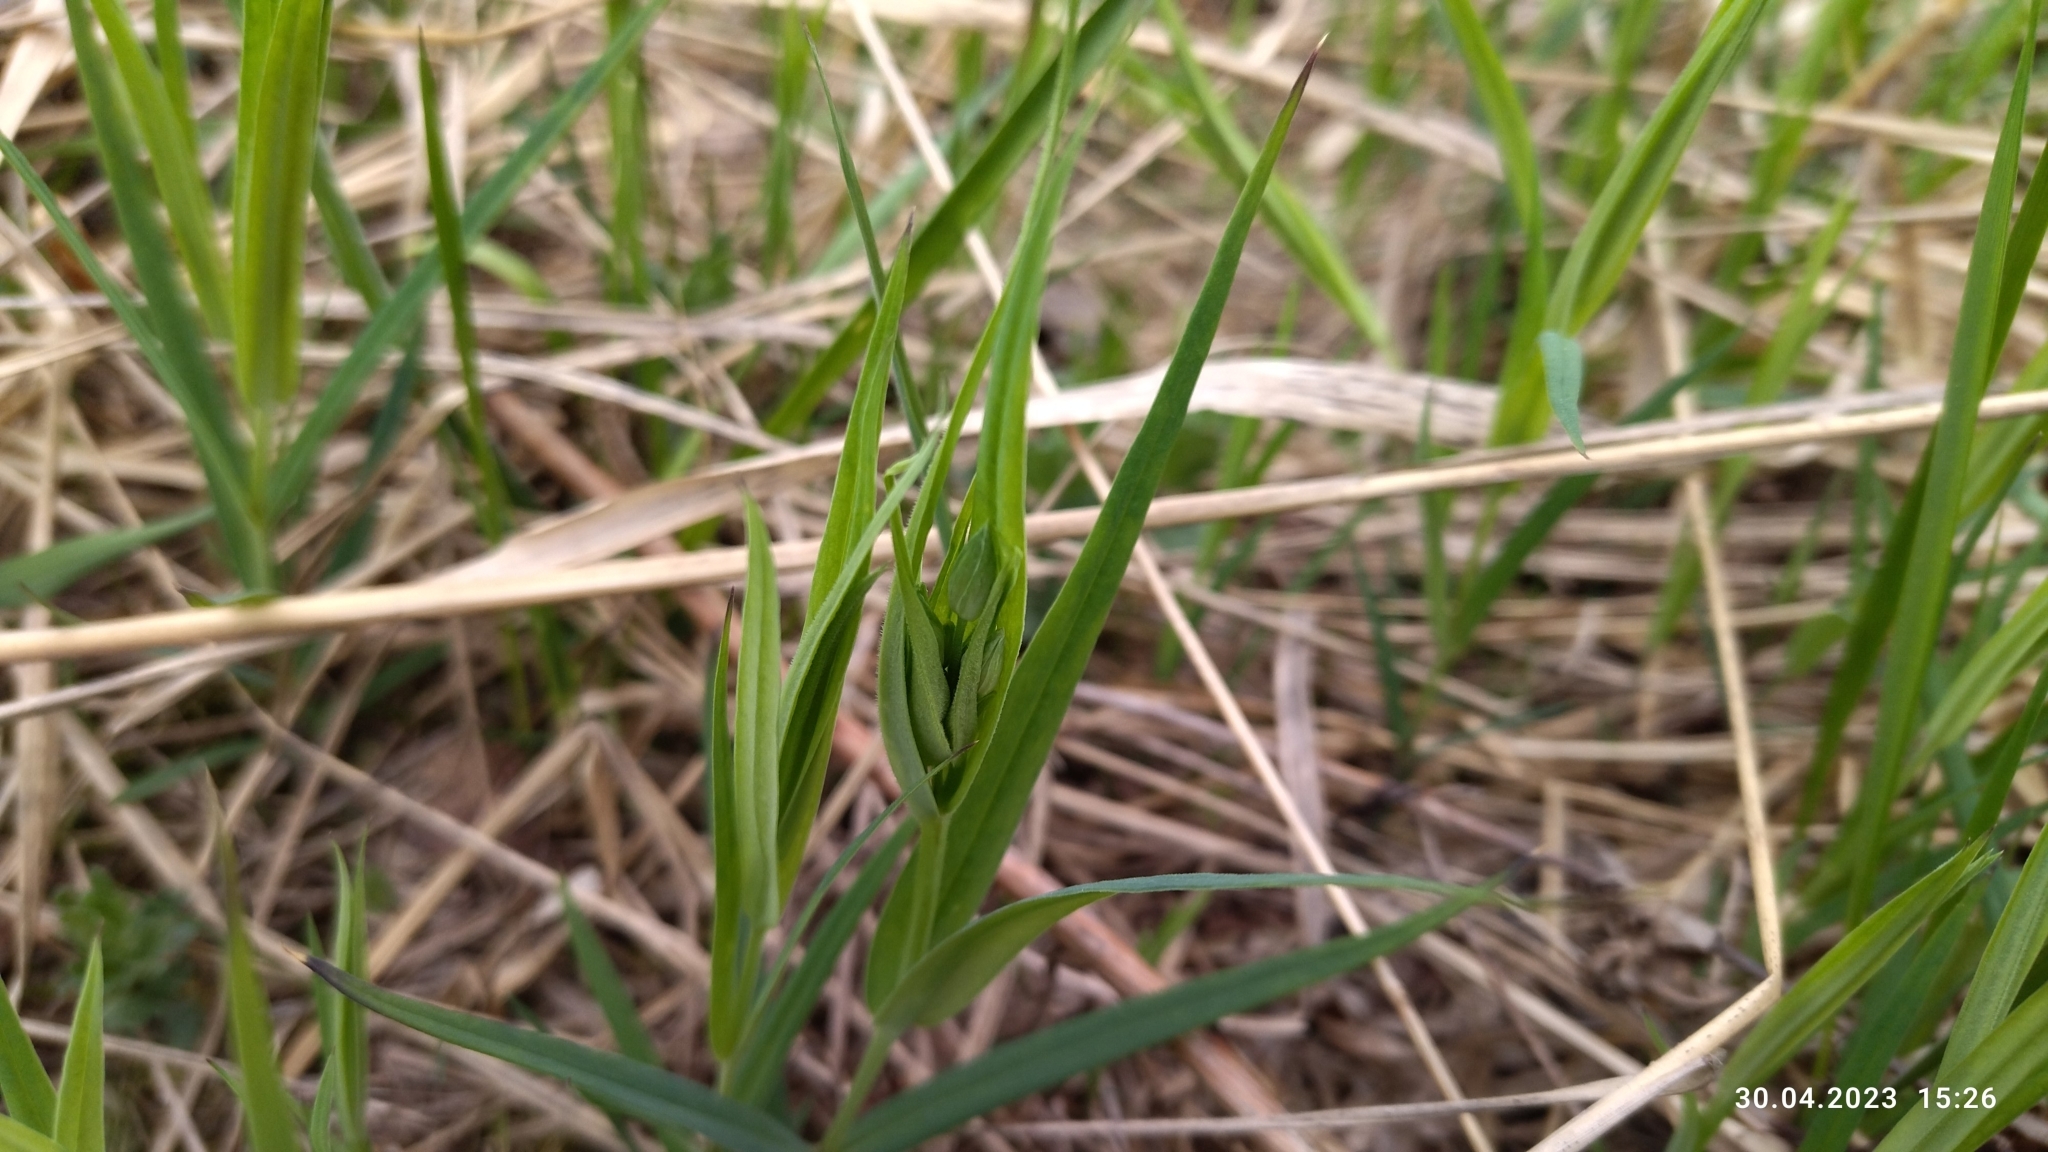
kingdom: Plantae
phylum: Tracheophyta
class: Magnoliopsida
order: Caryophyllales
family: Caryophyllaceae
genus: Rabelera
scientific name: Rabelera holostea
